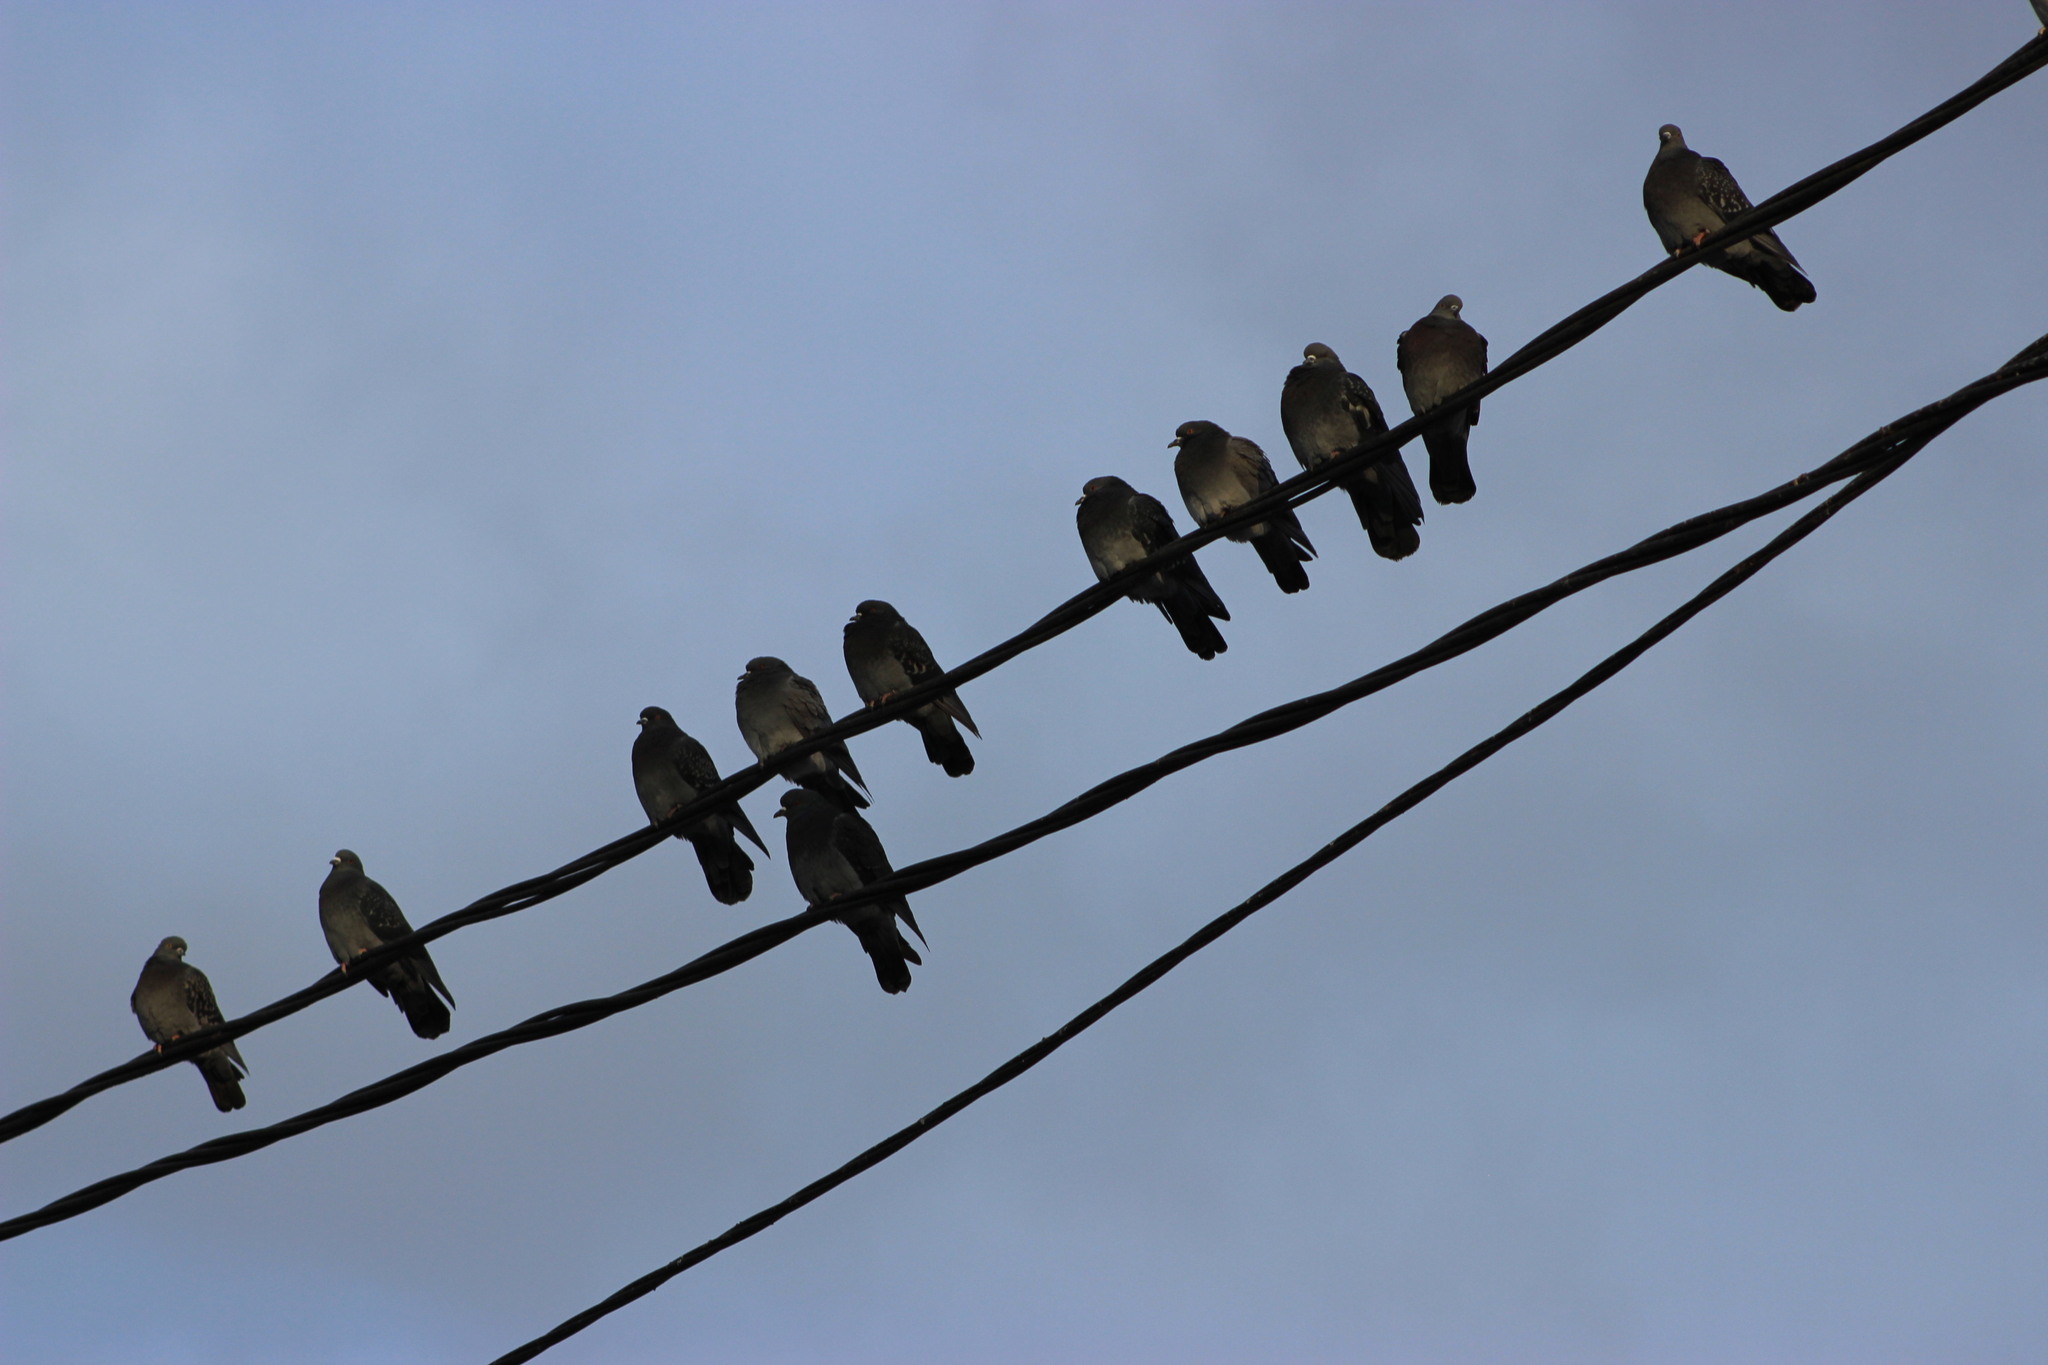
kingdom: Animalia
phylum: Chordata
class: Aves
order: Columbiformes
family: Columbidae
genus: Columba
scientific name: Columba livia
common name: Rock pigeon
